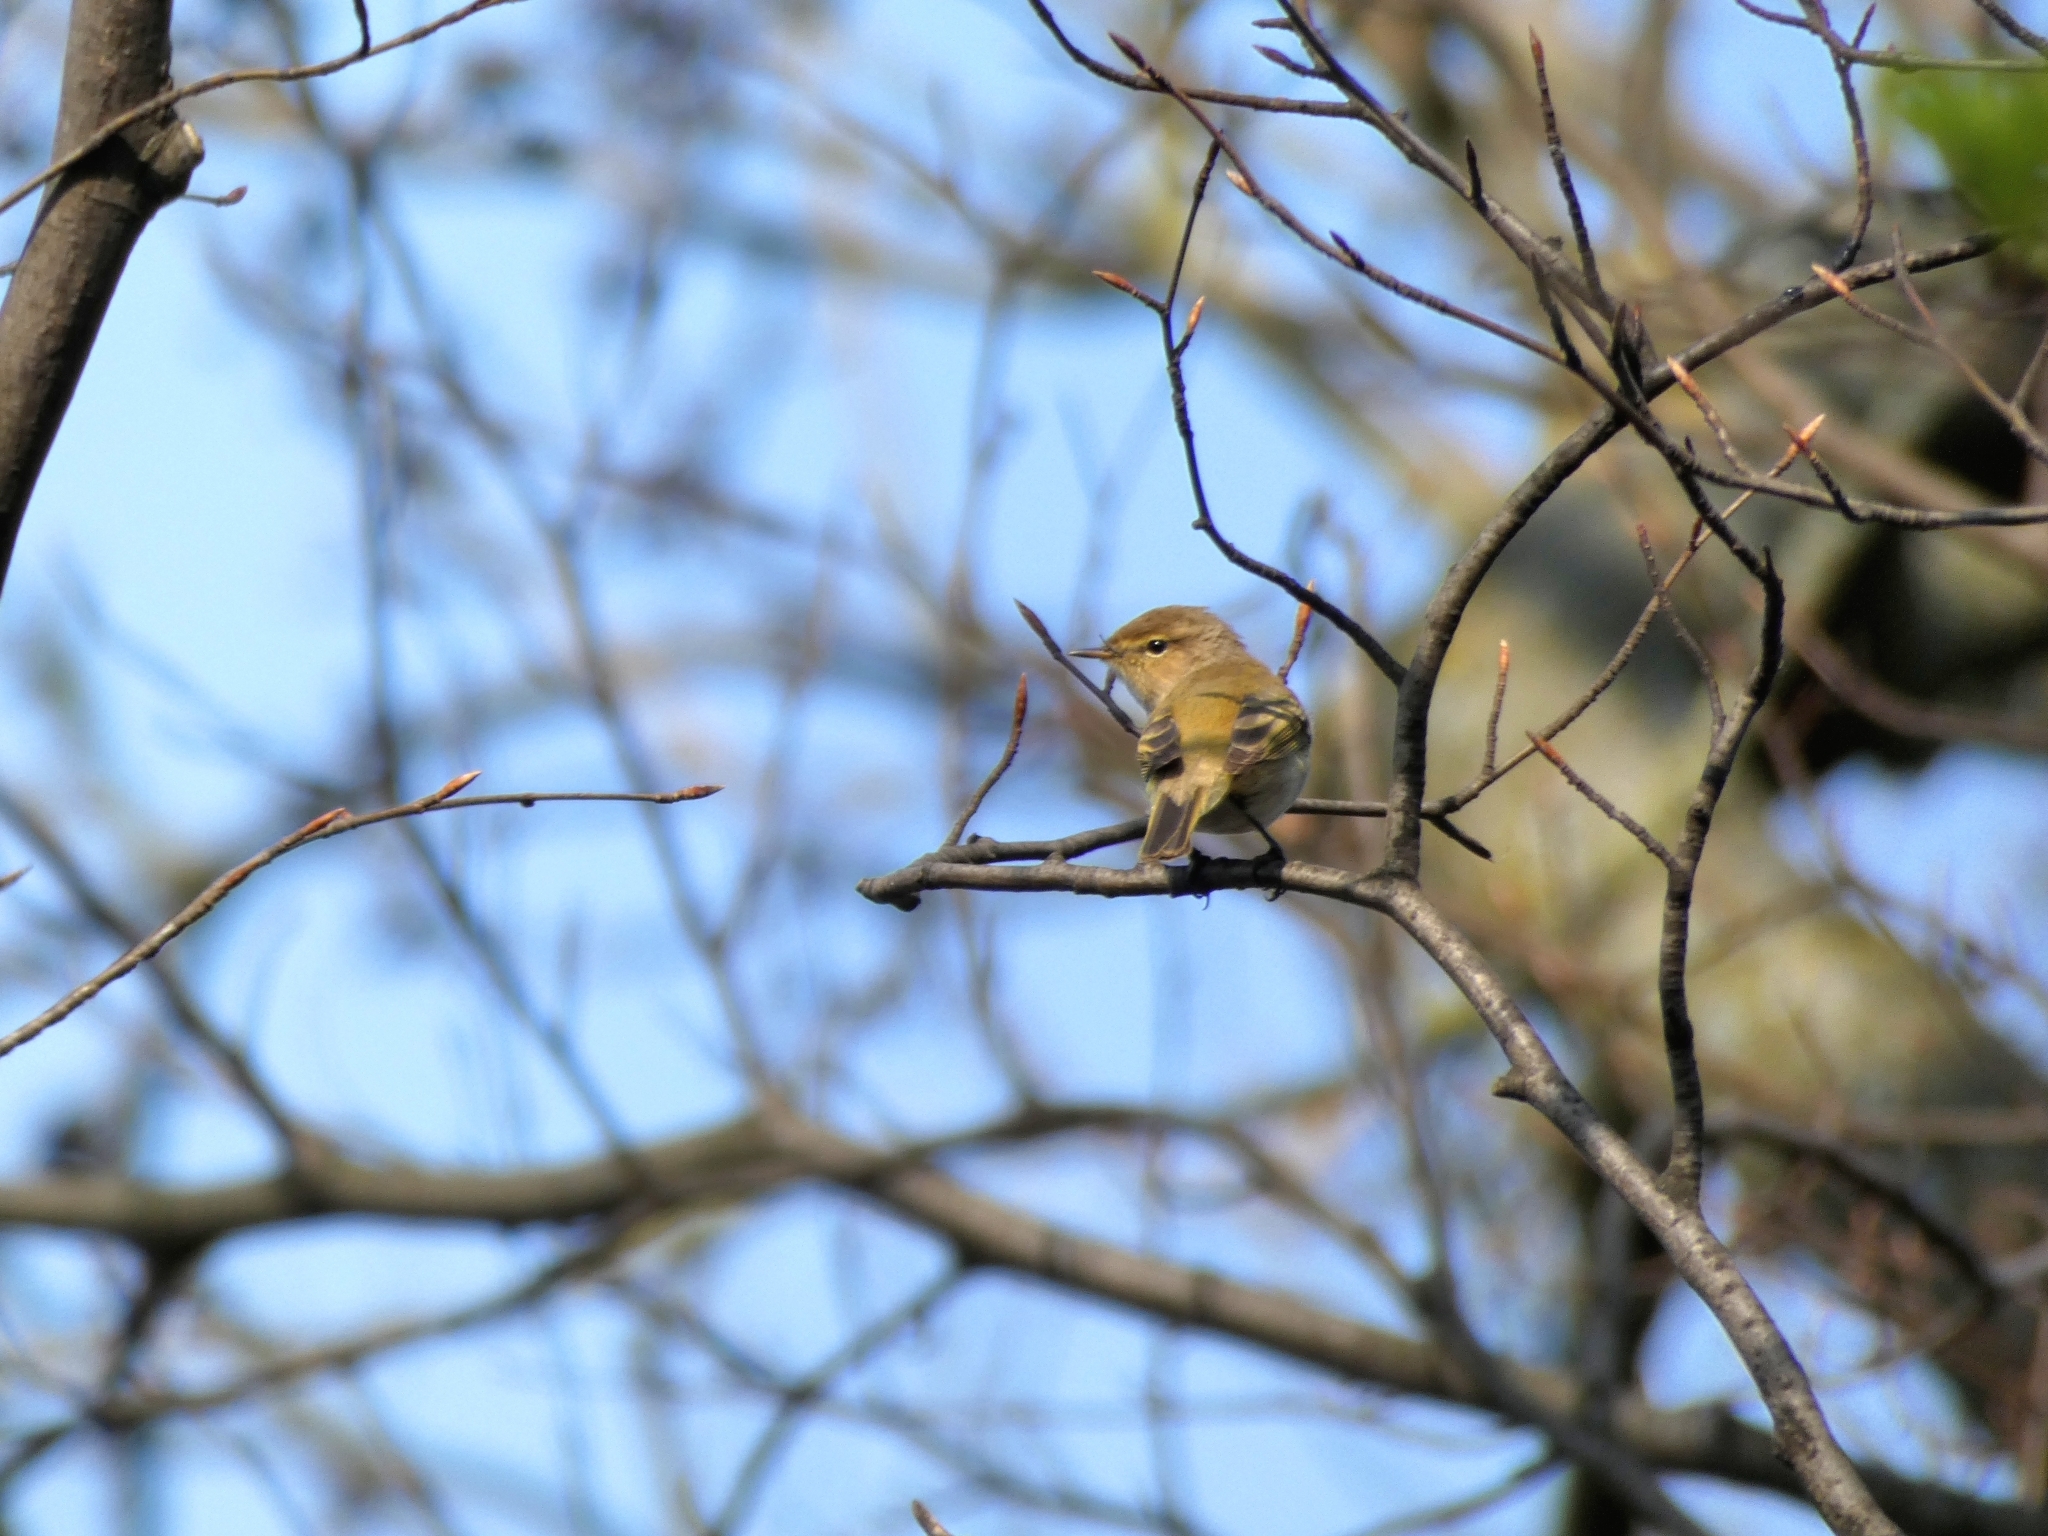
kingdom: Animalia
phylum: Chordata
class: Aves
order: Passeriformes
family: Phylloscopidae
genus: Phylloscopus
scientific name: Phylloscopus collybita
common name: Common chiffchaff
